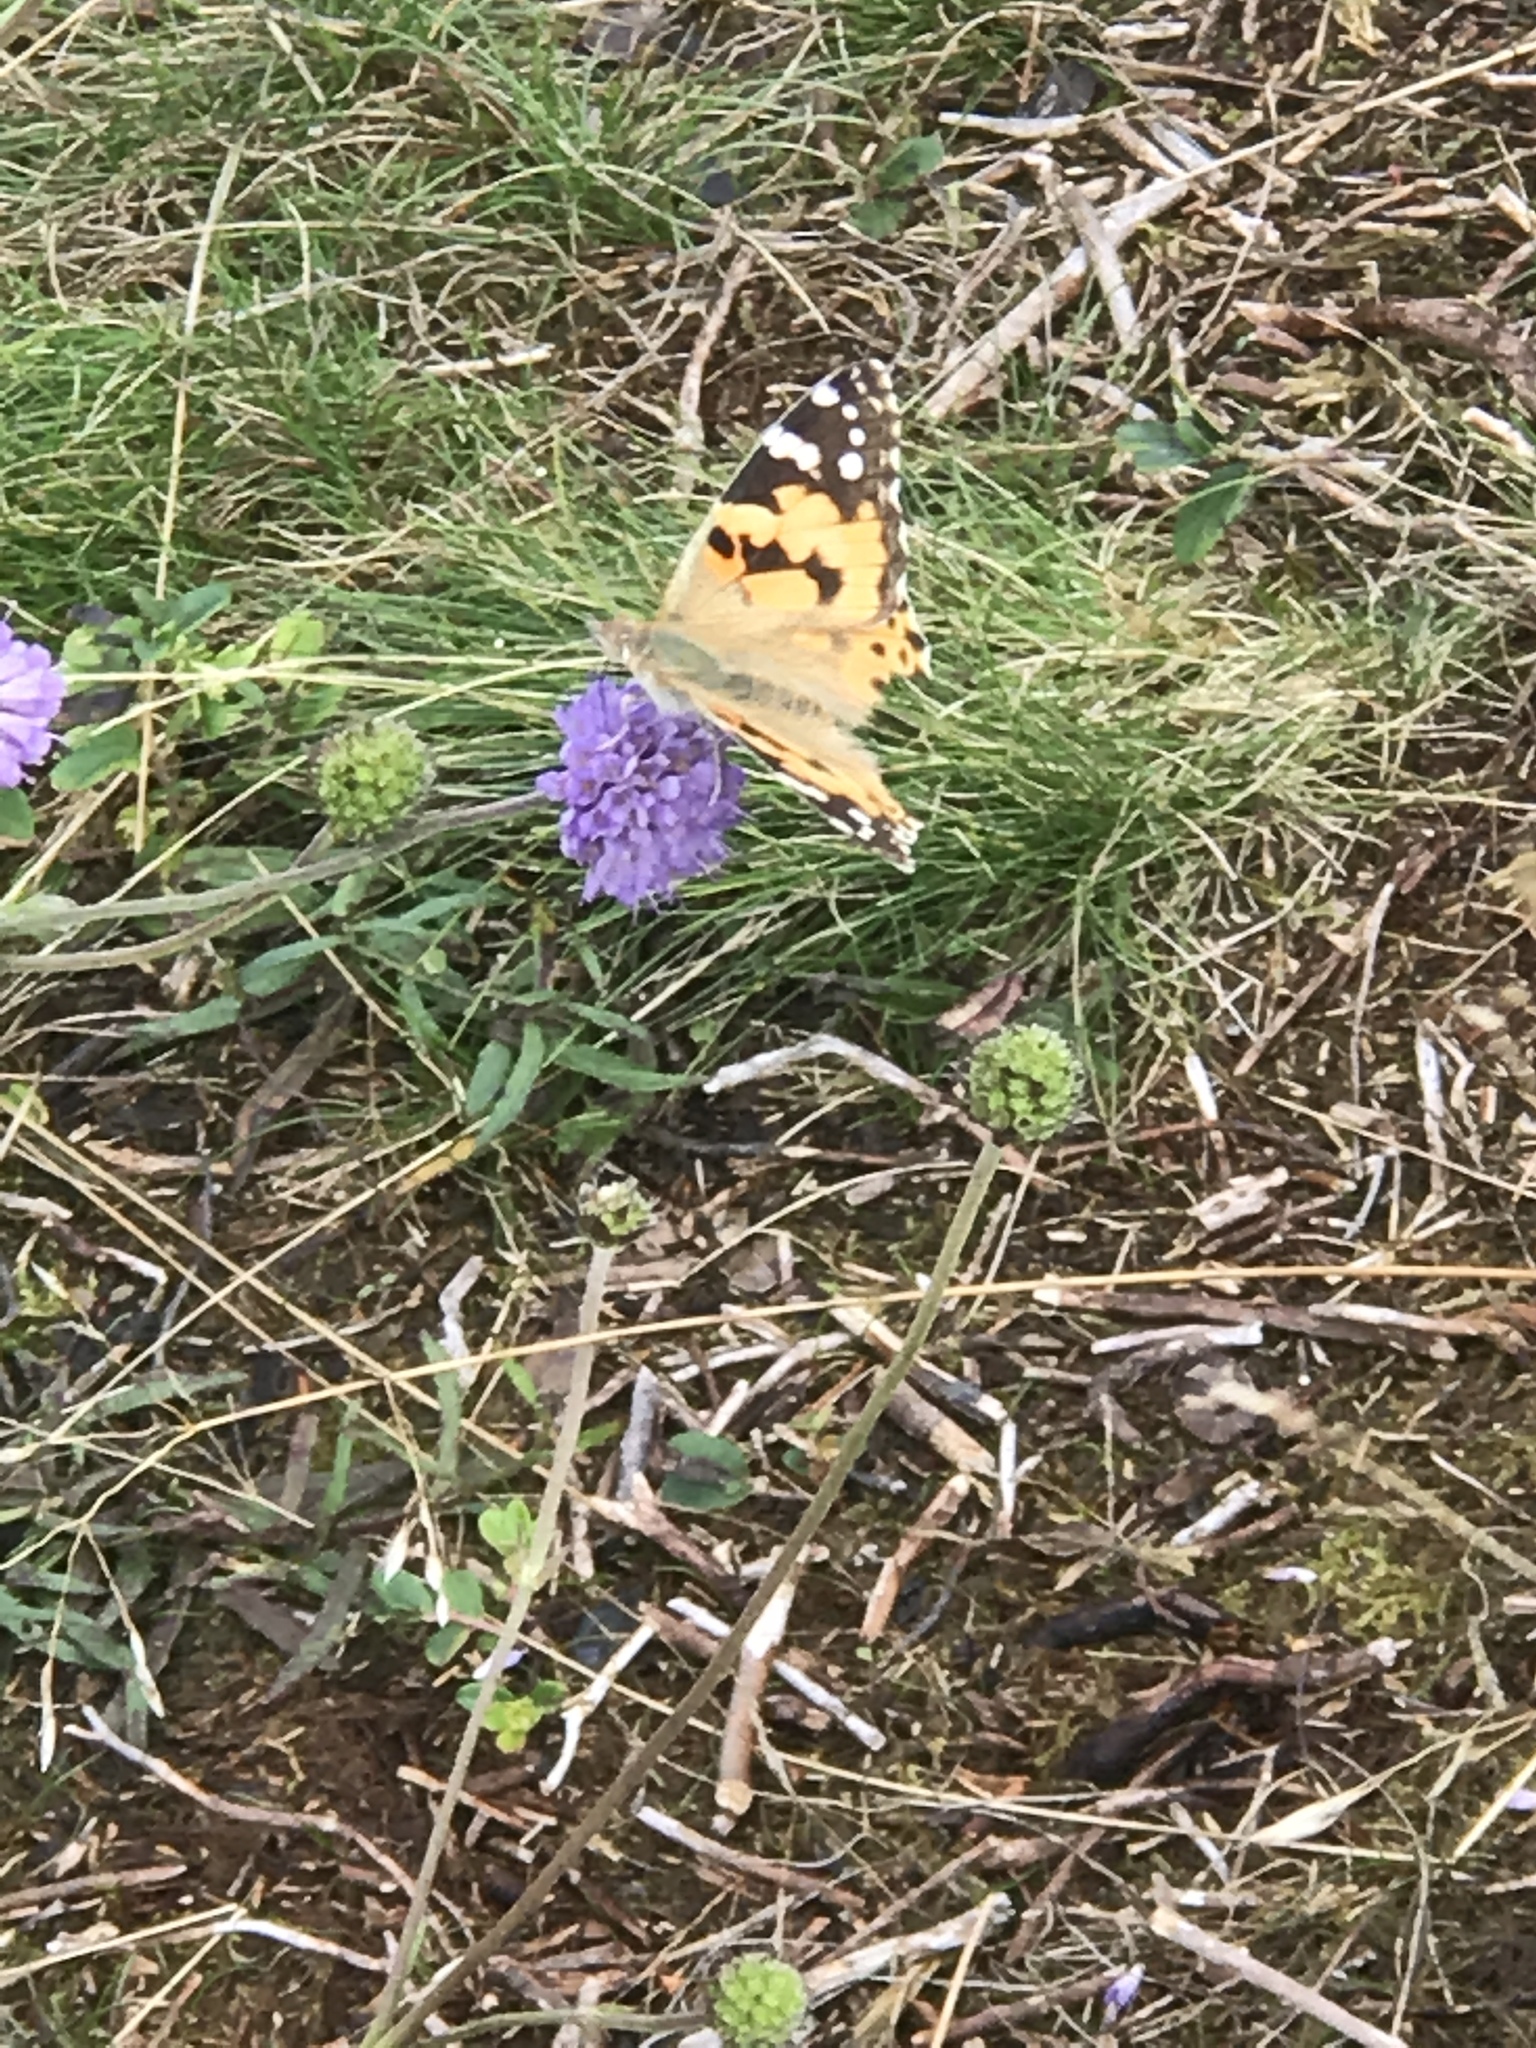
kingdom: Animalia
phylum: Arthropoda
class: Insecta
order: Lepidoptera
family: Nymphalidae
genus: Vanessa
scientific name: Vanessa cardui
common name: Painted lady
